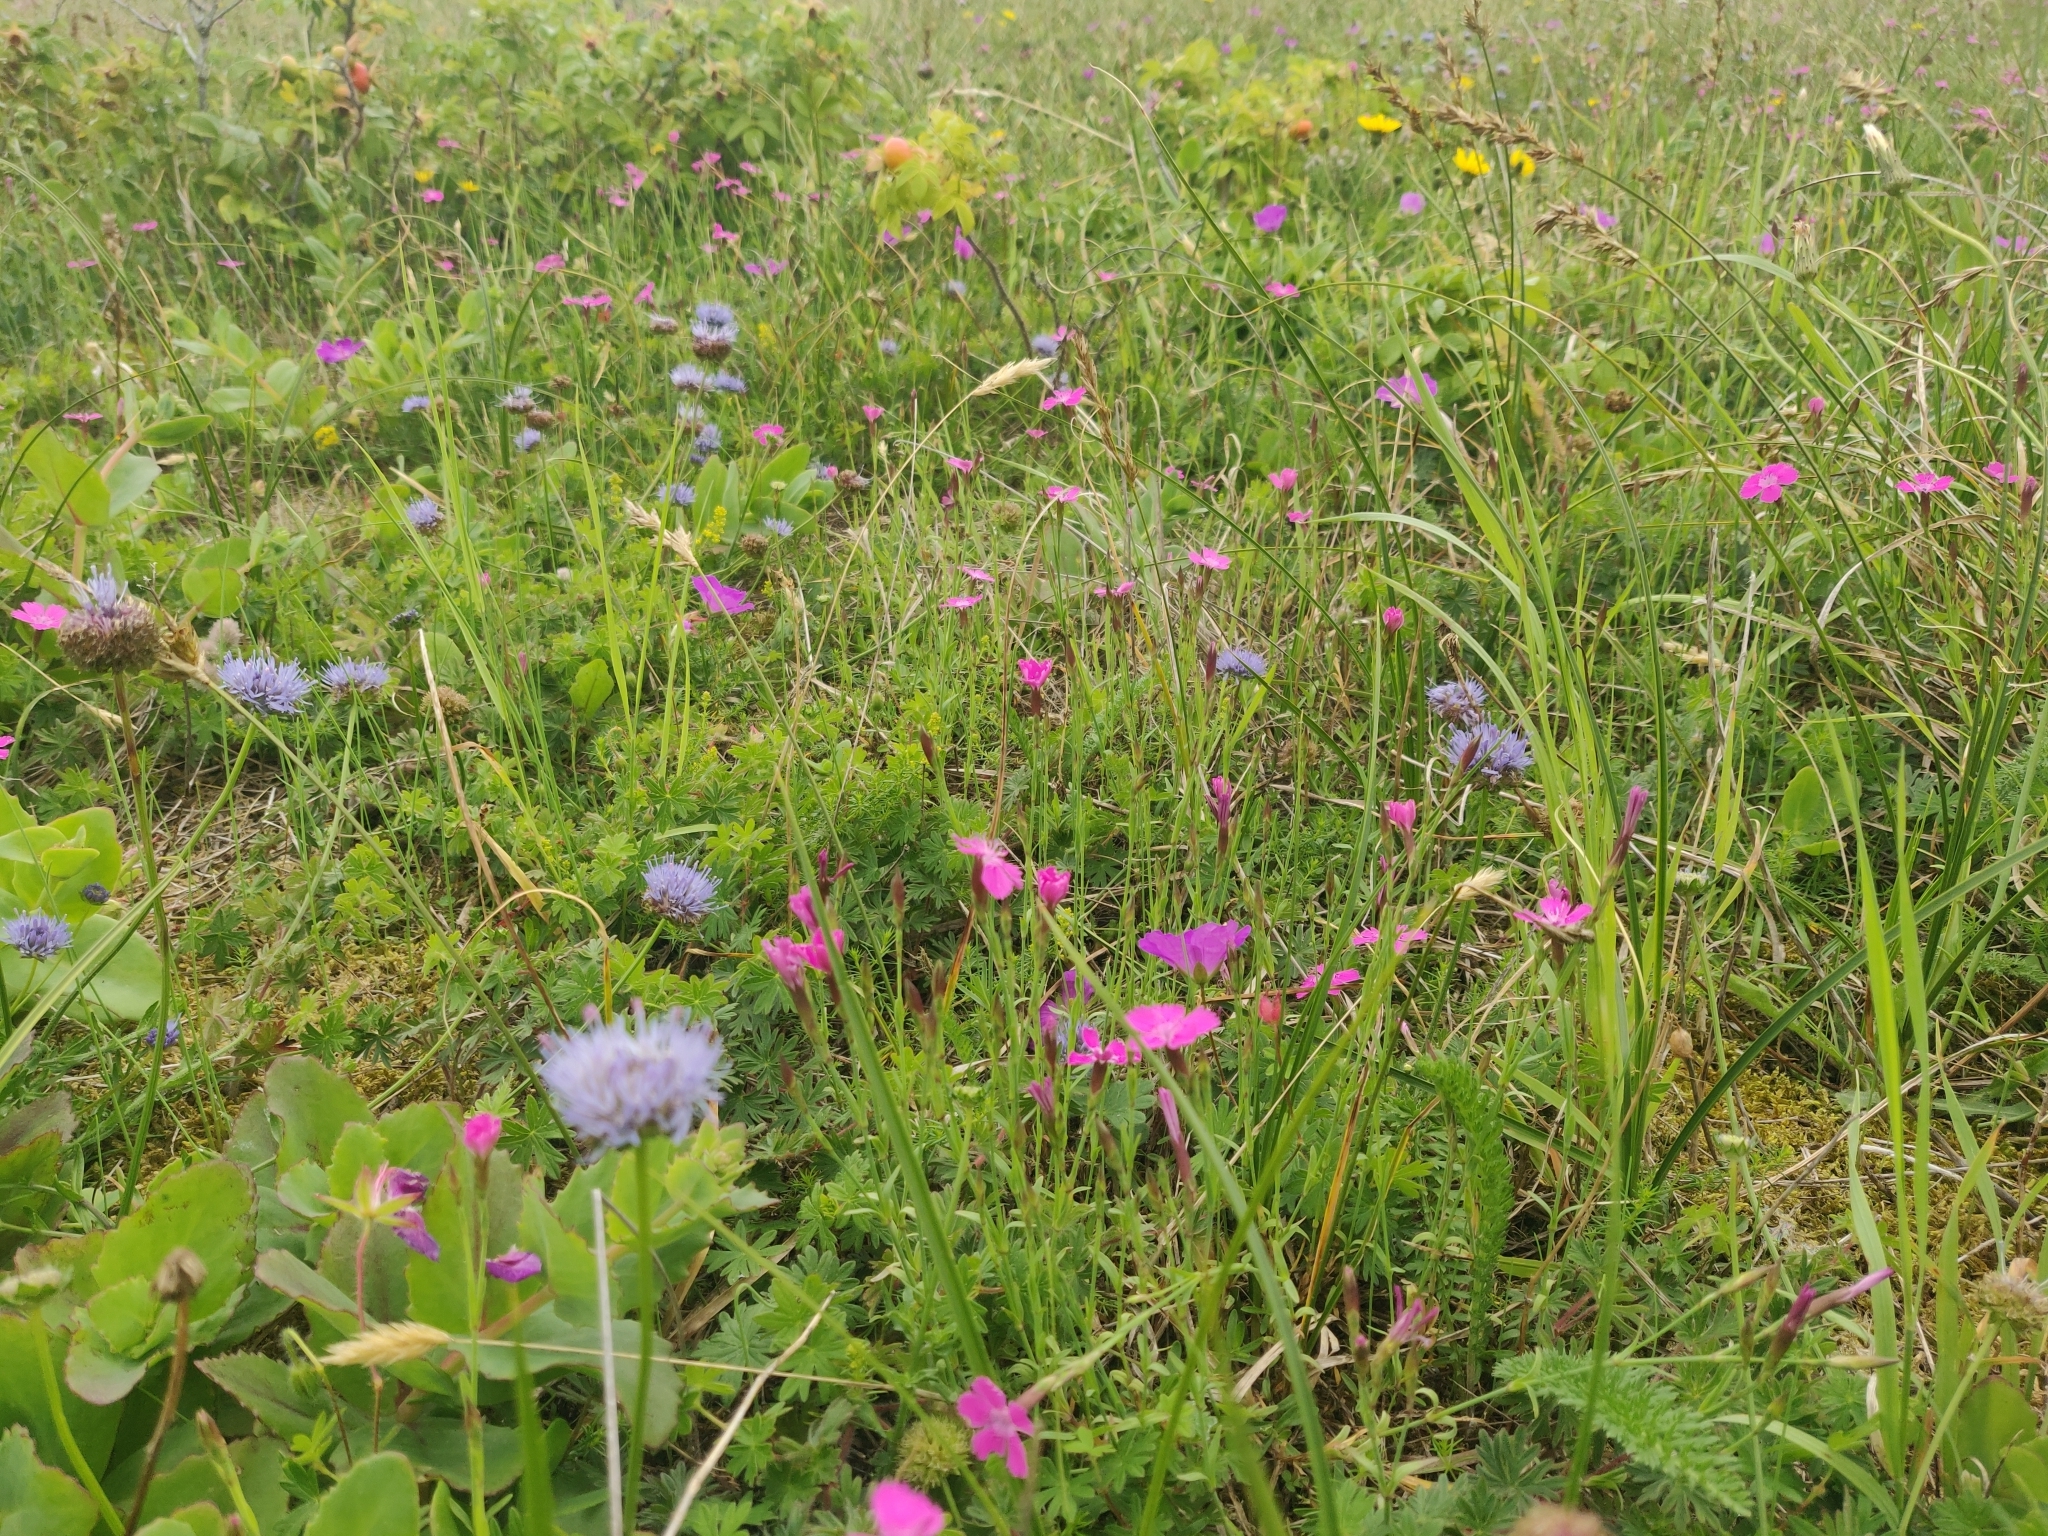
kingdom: Plantae
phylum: Tracheophyta
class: Magnoliopsida
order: Caryophyllales
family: Caryophyllaceae
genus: Dianthus
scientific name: Dianthus deltoides
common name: Maiden pink
